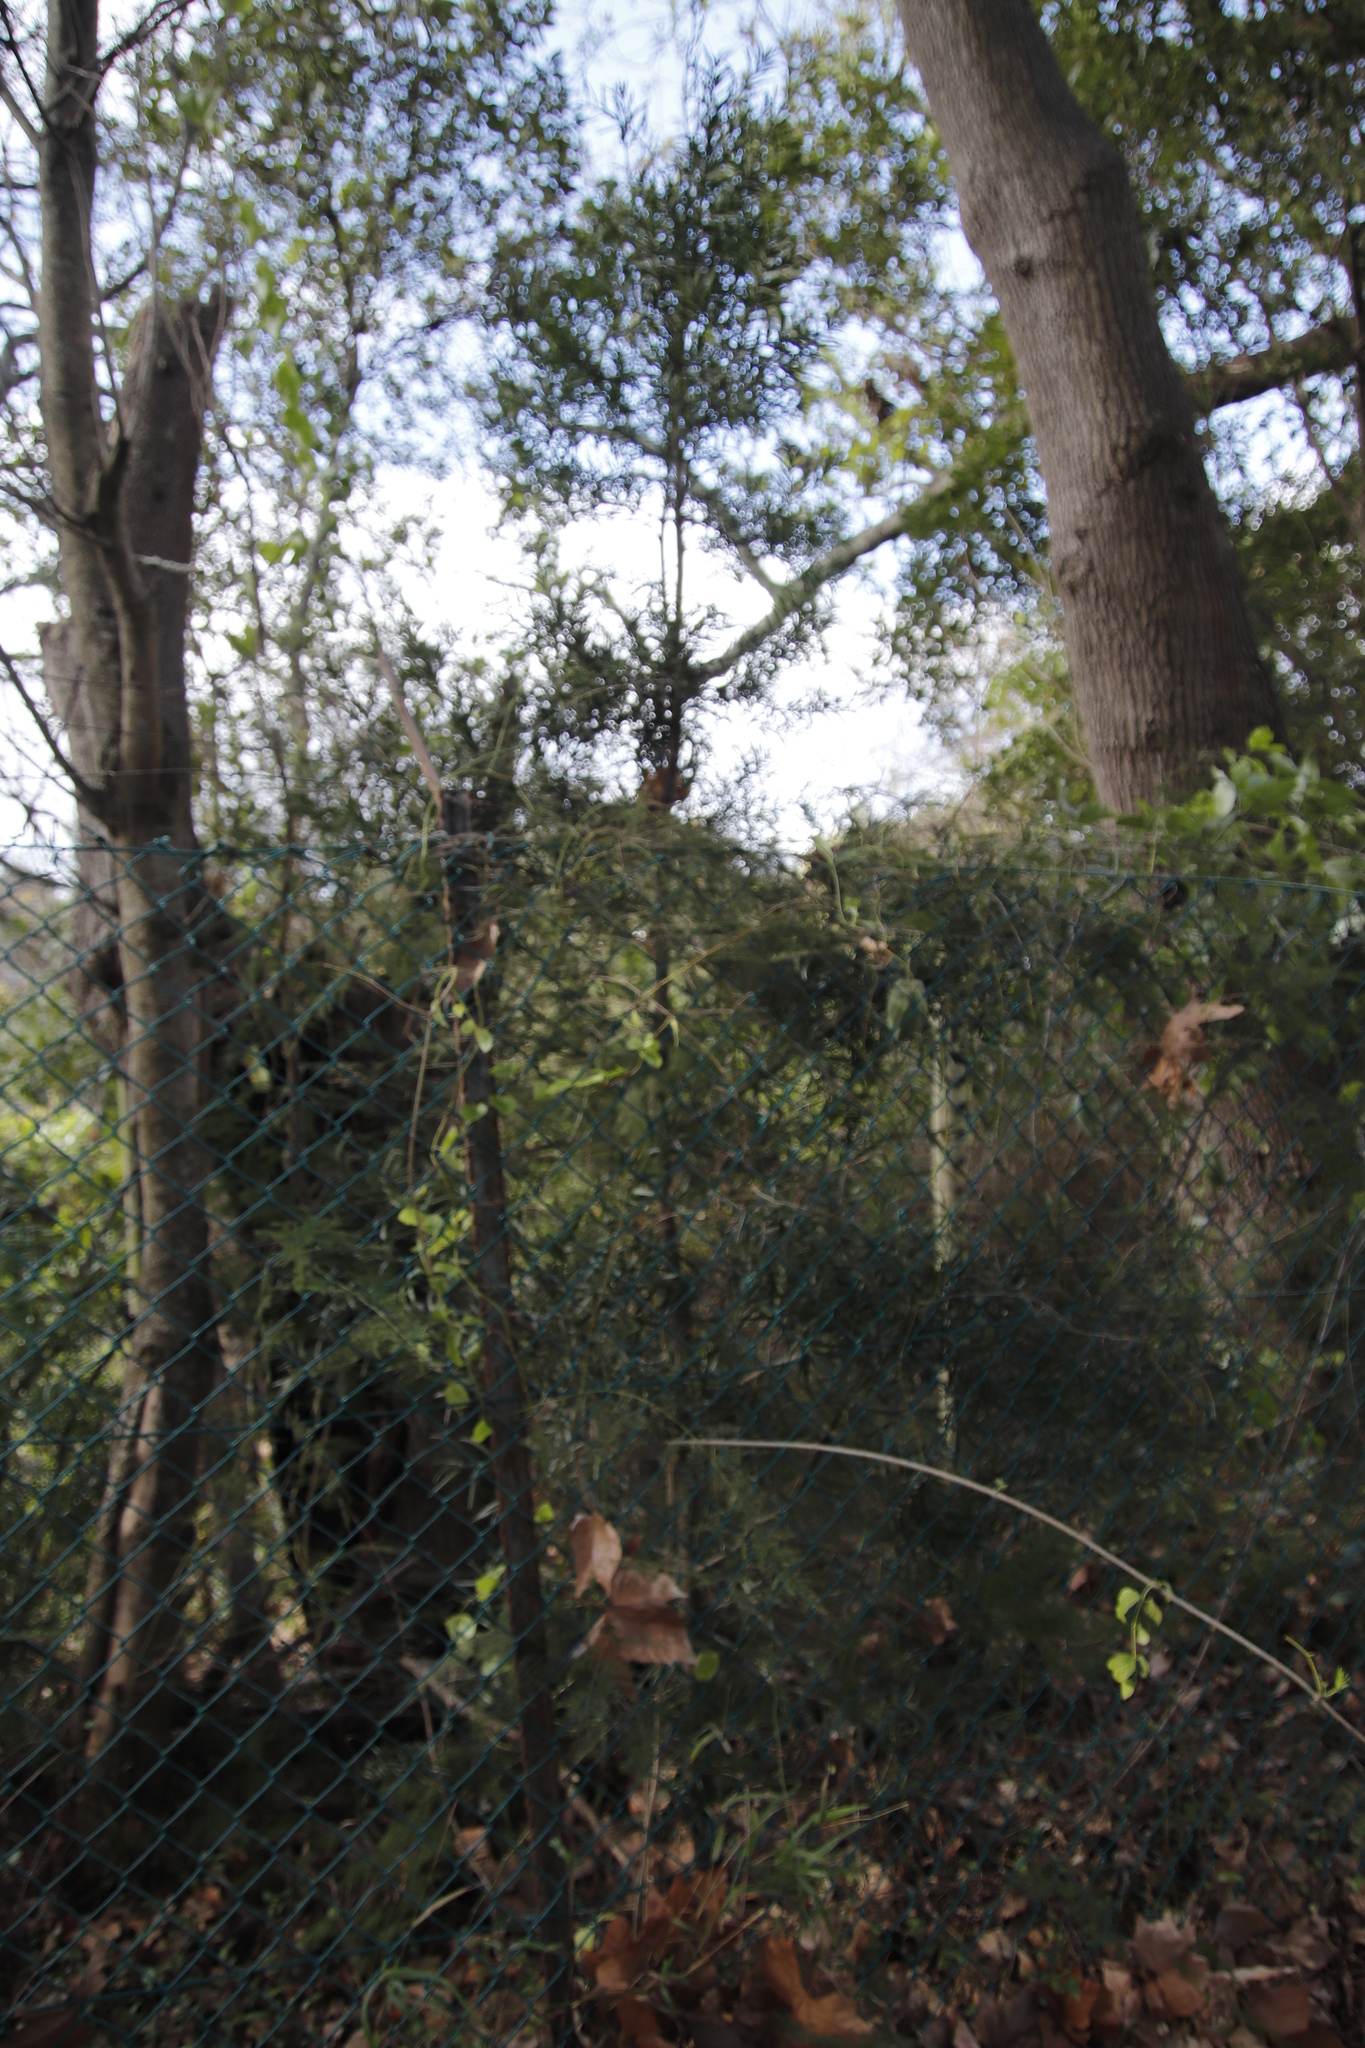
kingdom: Plantae
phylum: Tracheophyta
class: Pinopsida
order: Pinales
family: Podocarpaceae
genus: Afrocarpus
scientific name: Afrocarpus falcatus
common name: Bastard yellowwood
